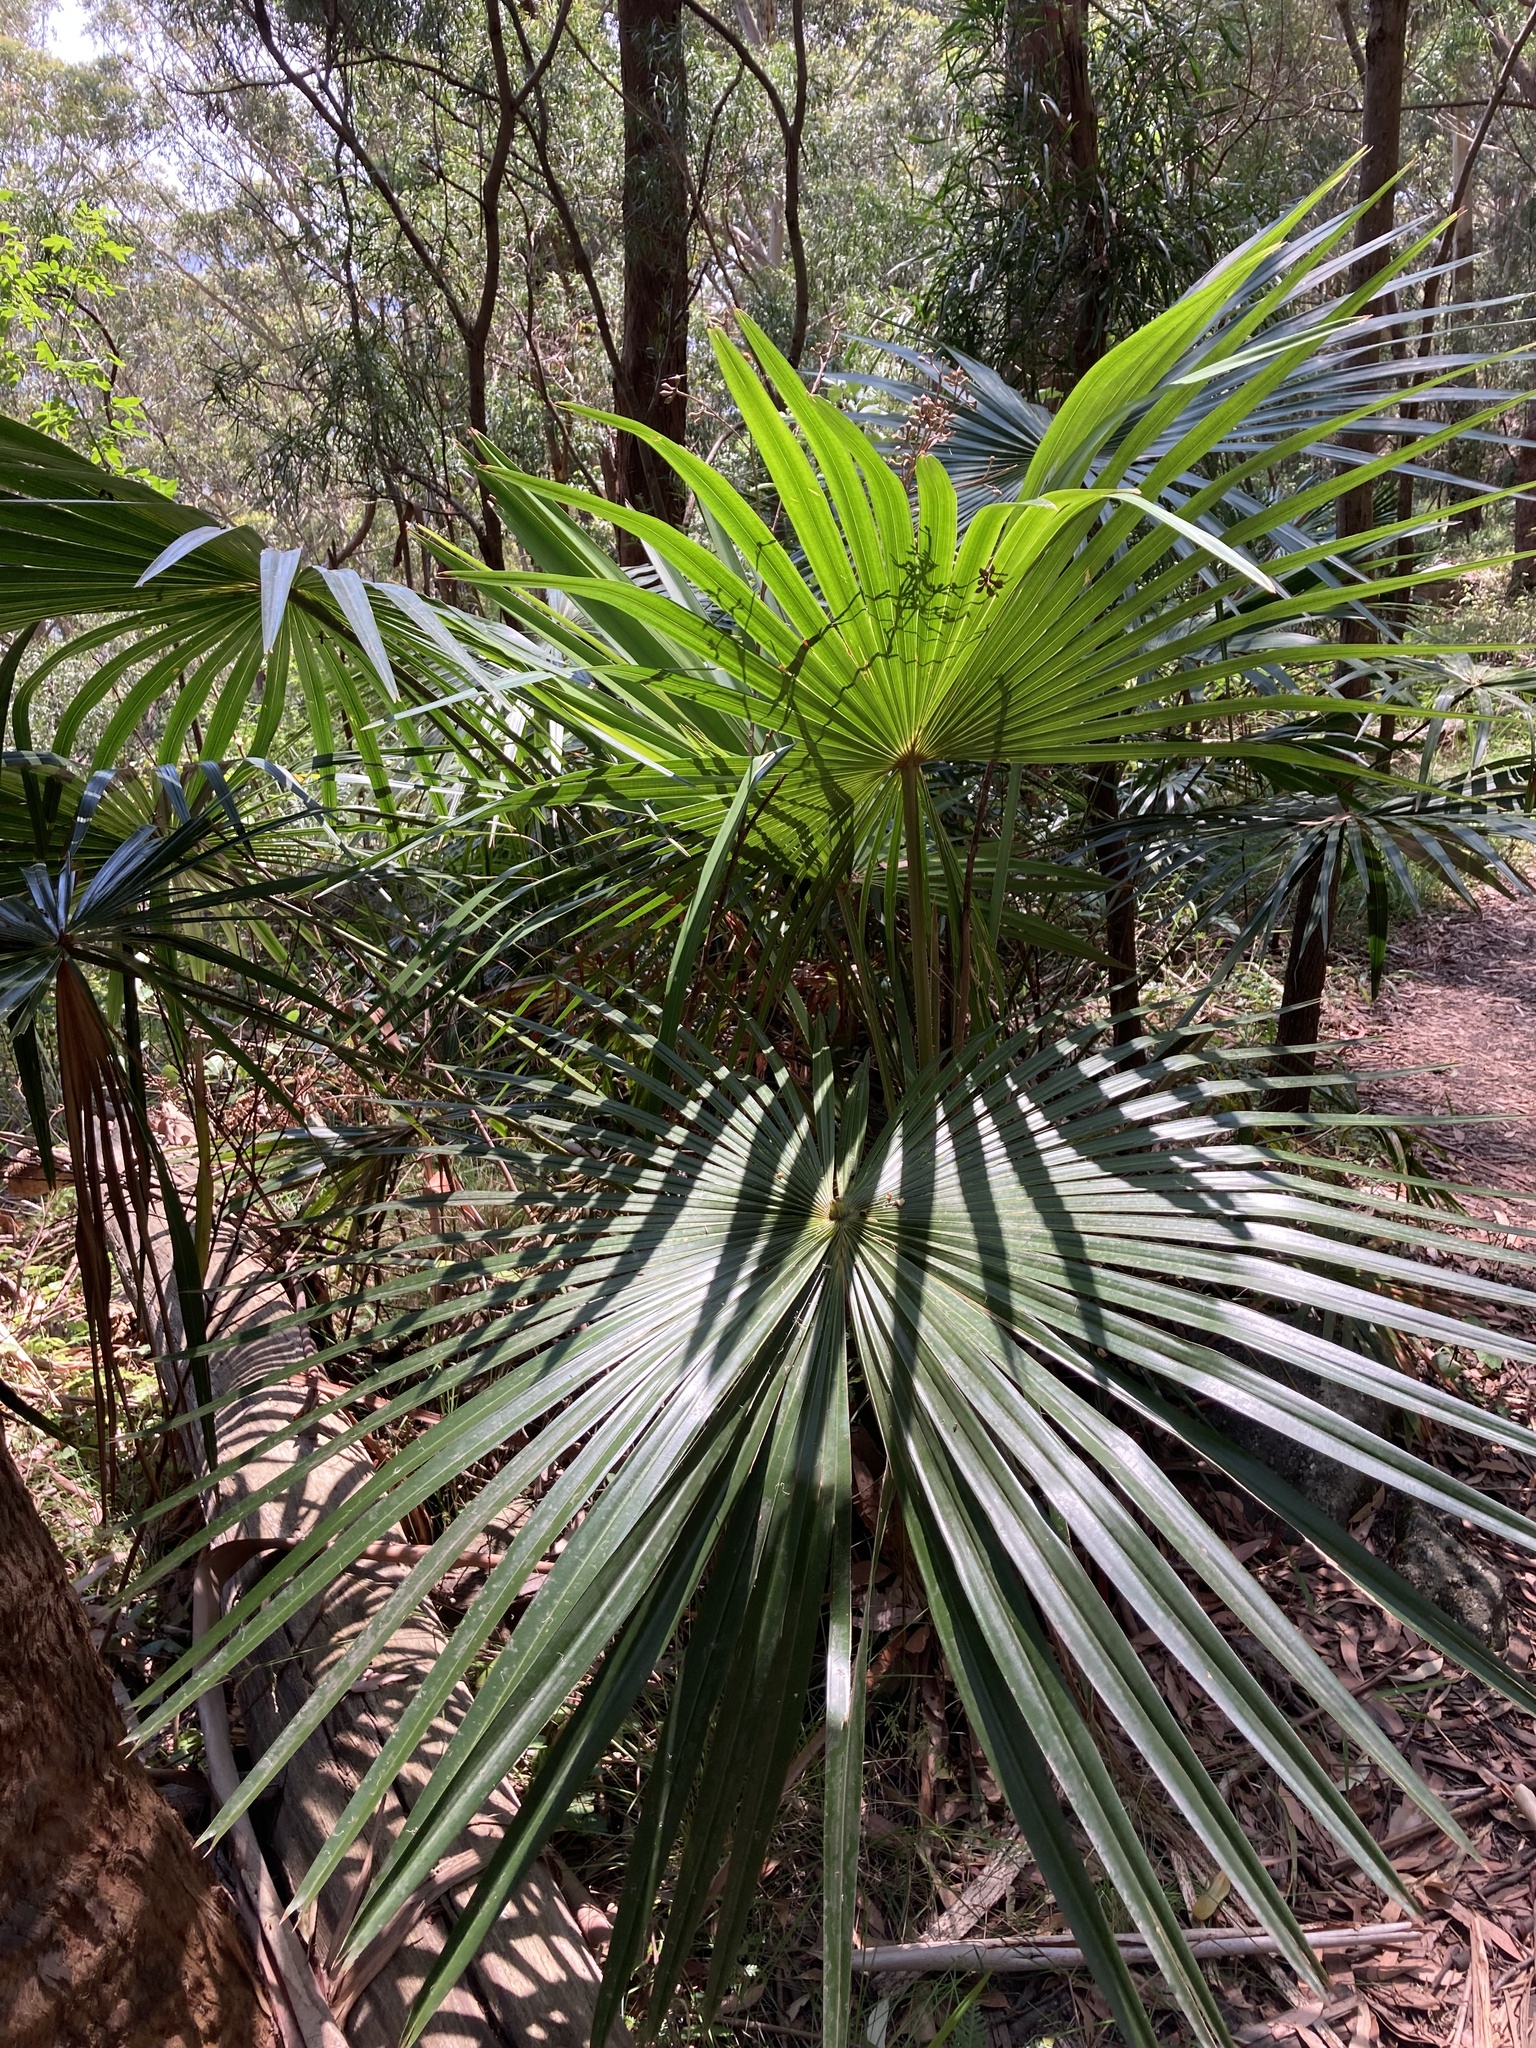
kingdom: Plantae
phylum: Tracheophyta
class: Liliopsida
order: Arecales
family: Arecaceae
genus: Livistona
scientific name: Livistona australis
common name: Cabbage fan palm
